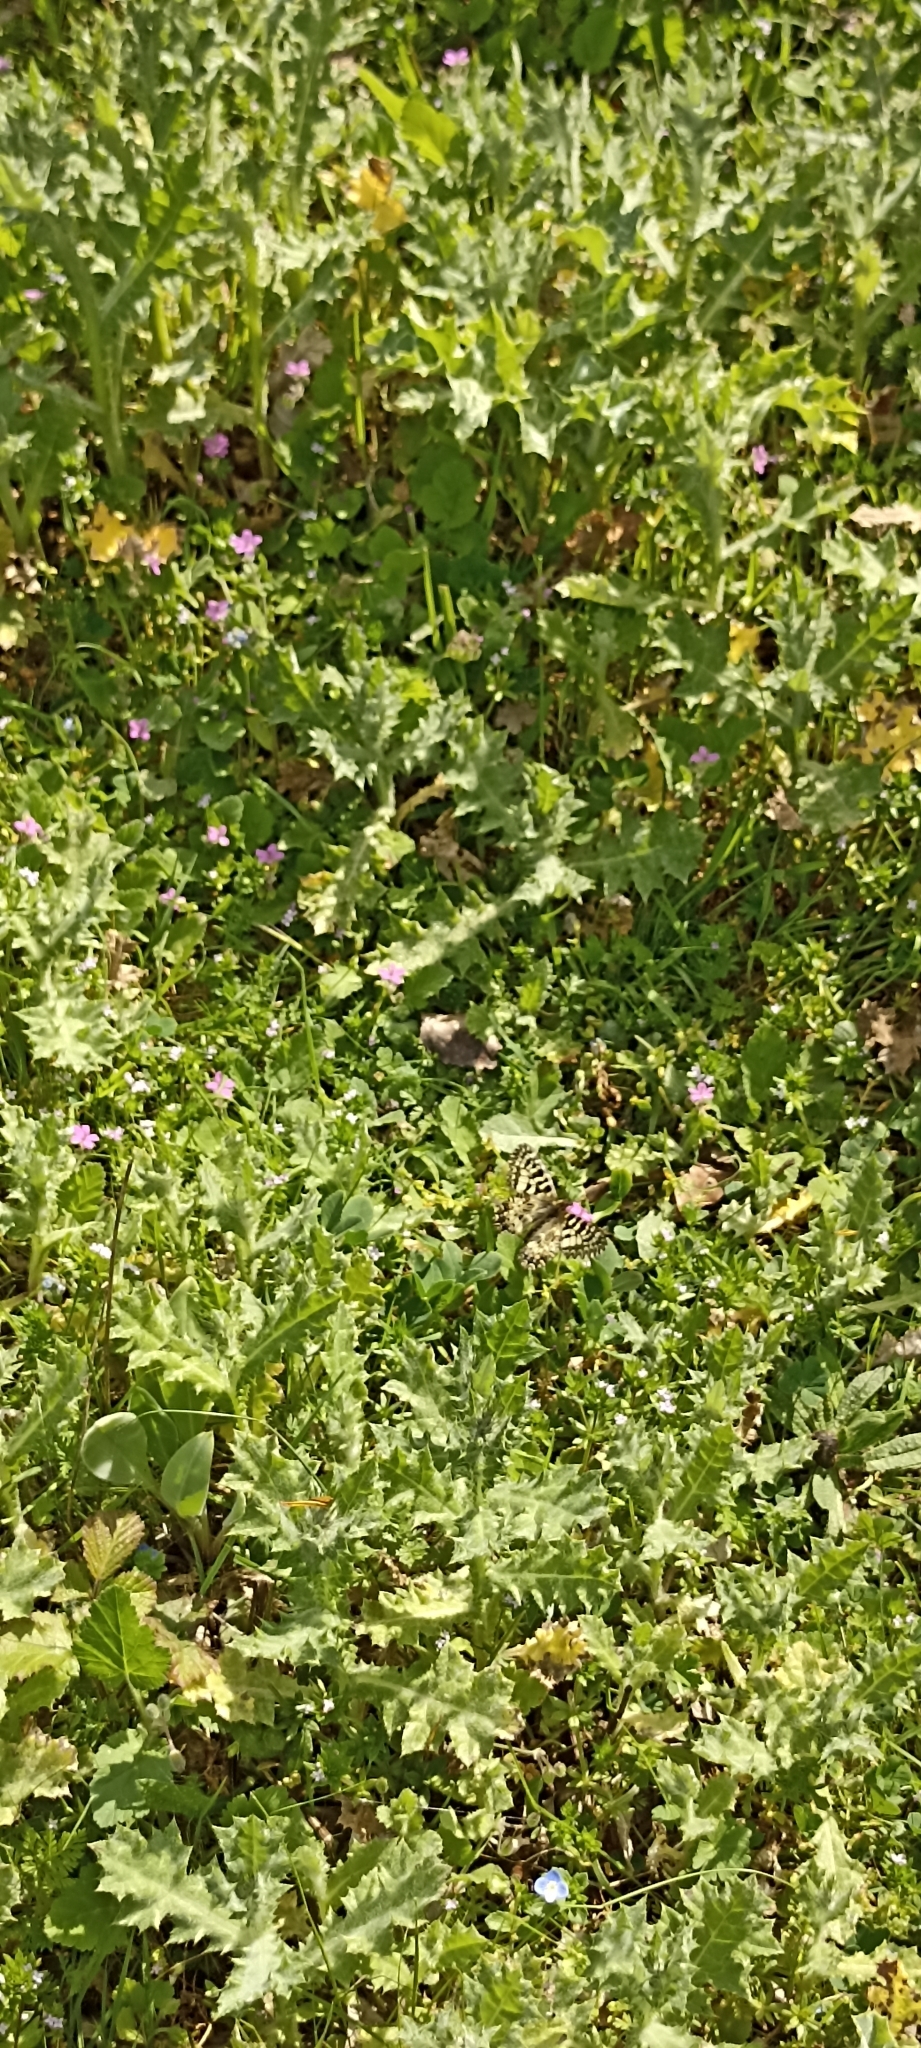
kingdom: Animalia
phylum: Arthropoda
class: Insecta
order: Lepidoptera
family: Papilionidae
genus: Zerynthia
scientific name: Zerynthia polyxena
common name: Southern festoon
